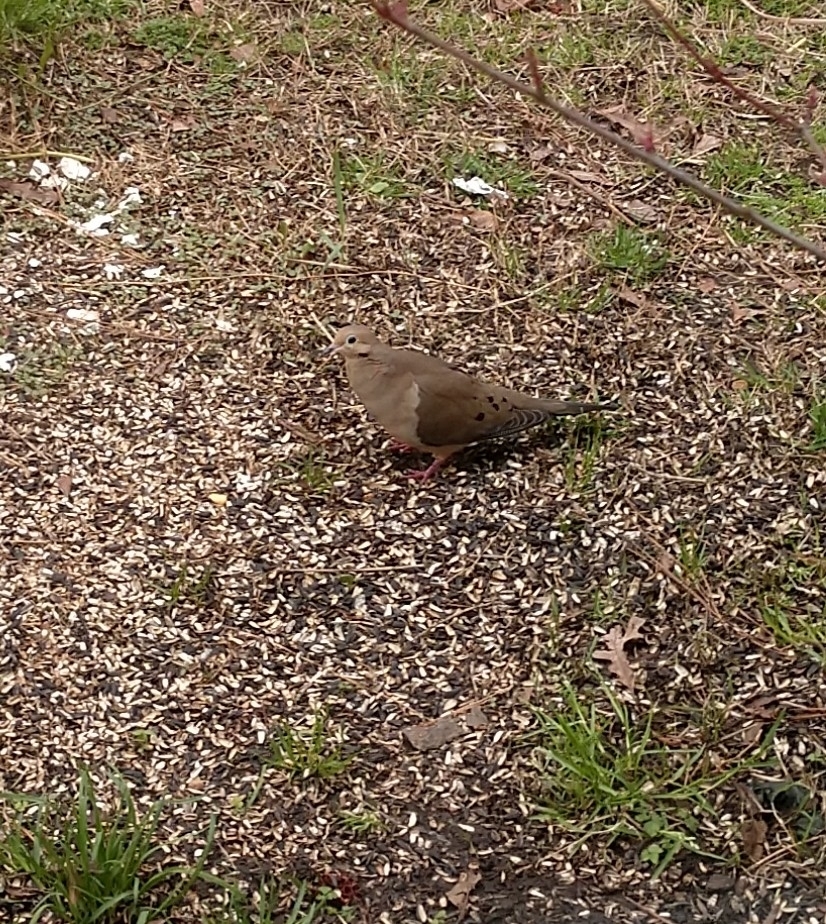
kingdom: Animalia
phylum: Chordata
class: Aves
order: Columbiformes
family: Columbidae
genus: Zenaida
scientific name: Zenaida macroura
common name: Mourning dove
